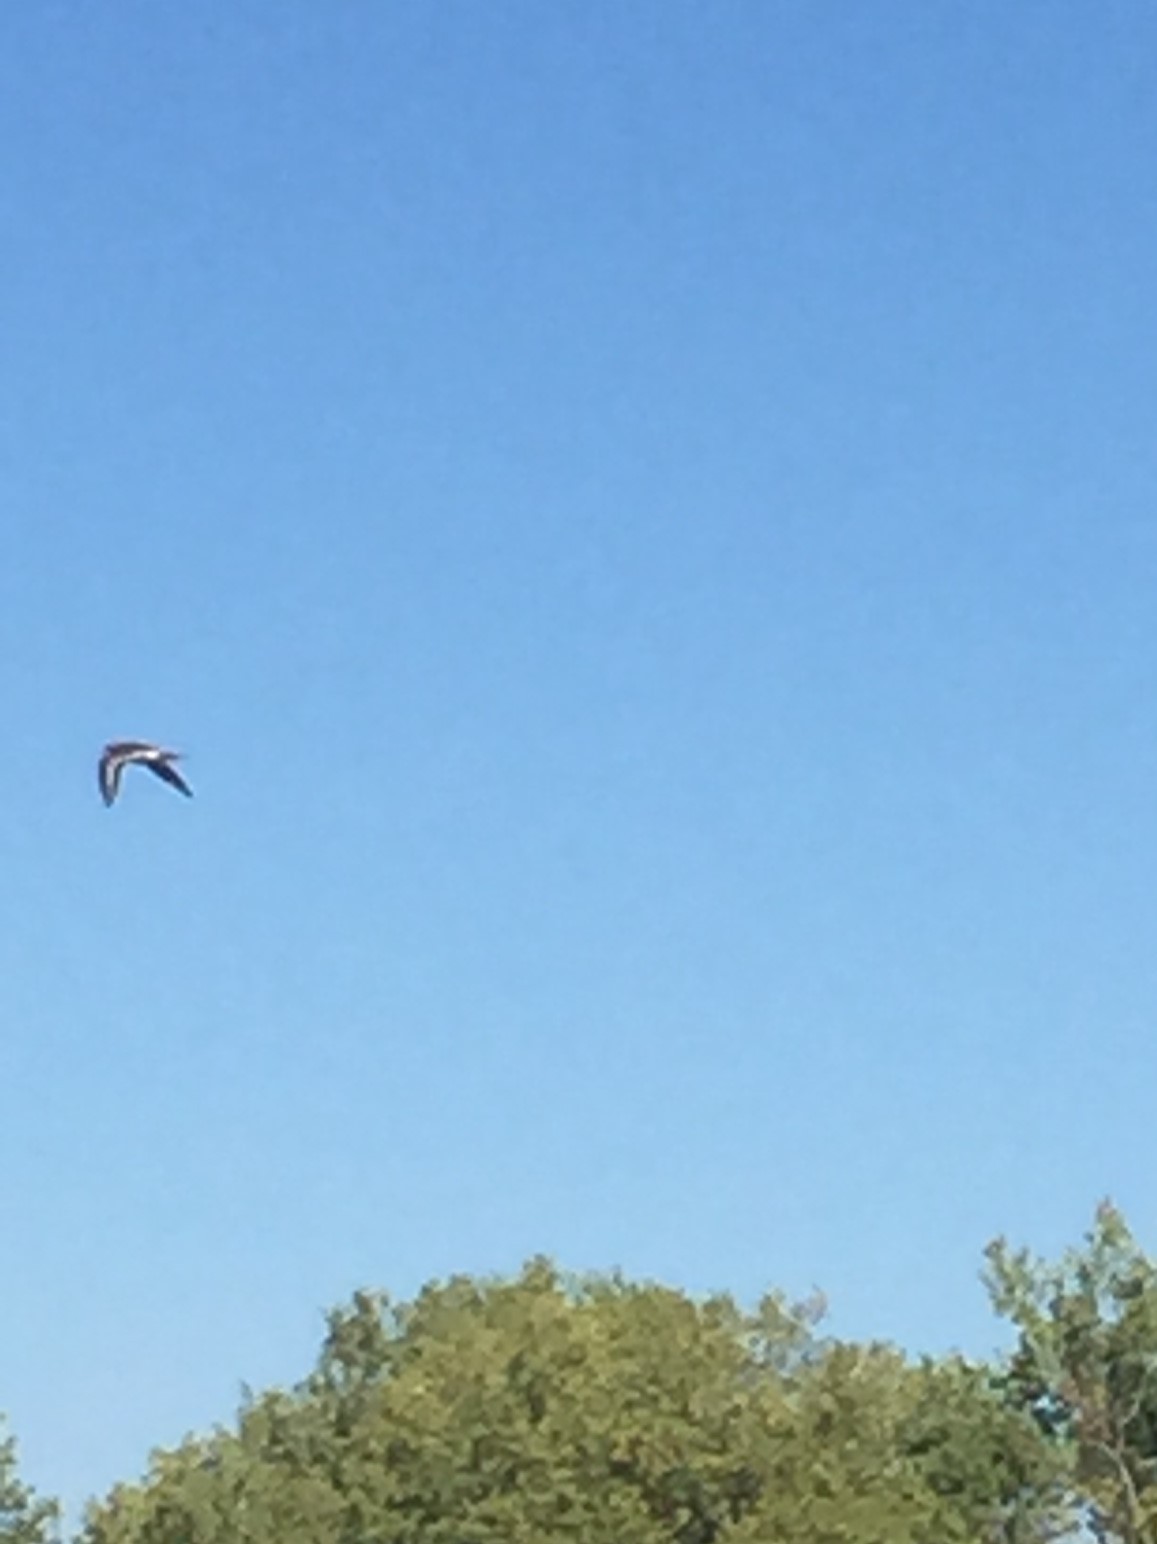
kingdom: Animalia
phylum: Chordata
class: Aves
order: Charadriiformes
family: Charadriidae
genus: Charadrius
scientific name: Charadrius vociferus
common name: Killdeer
